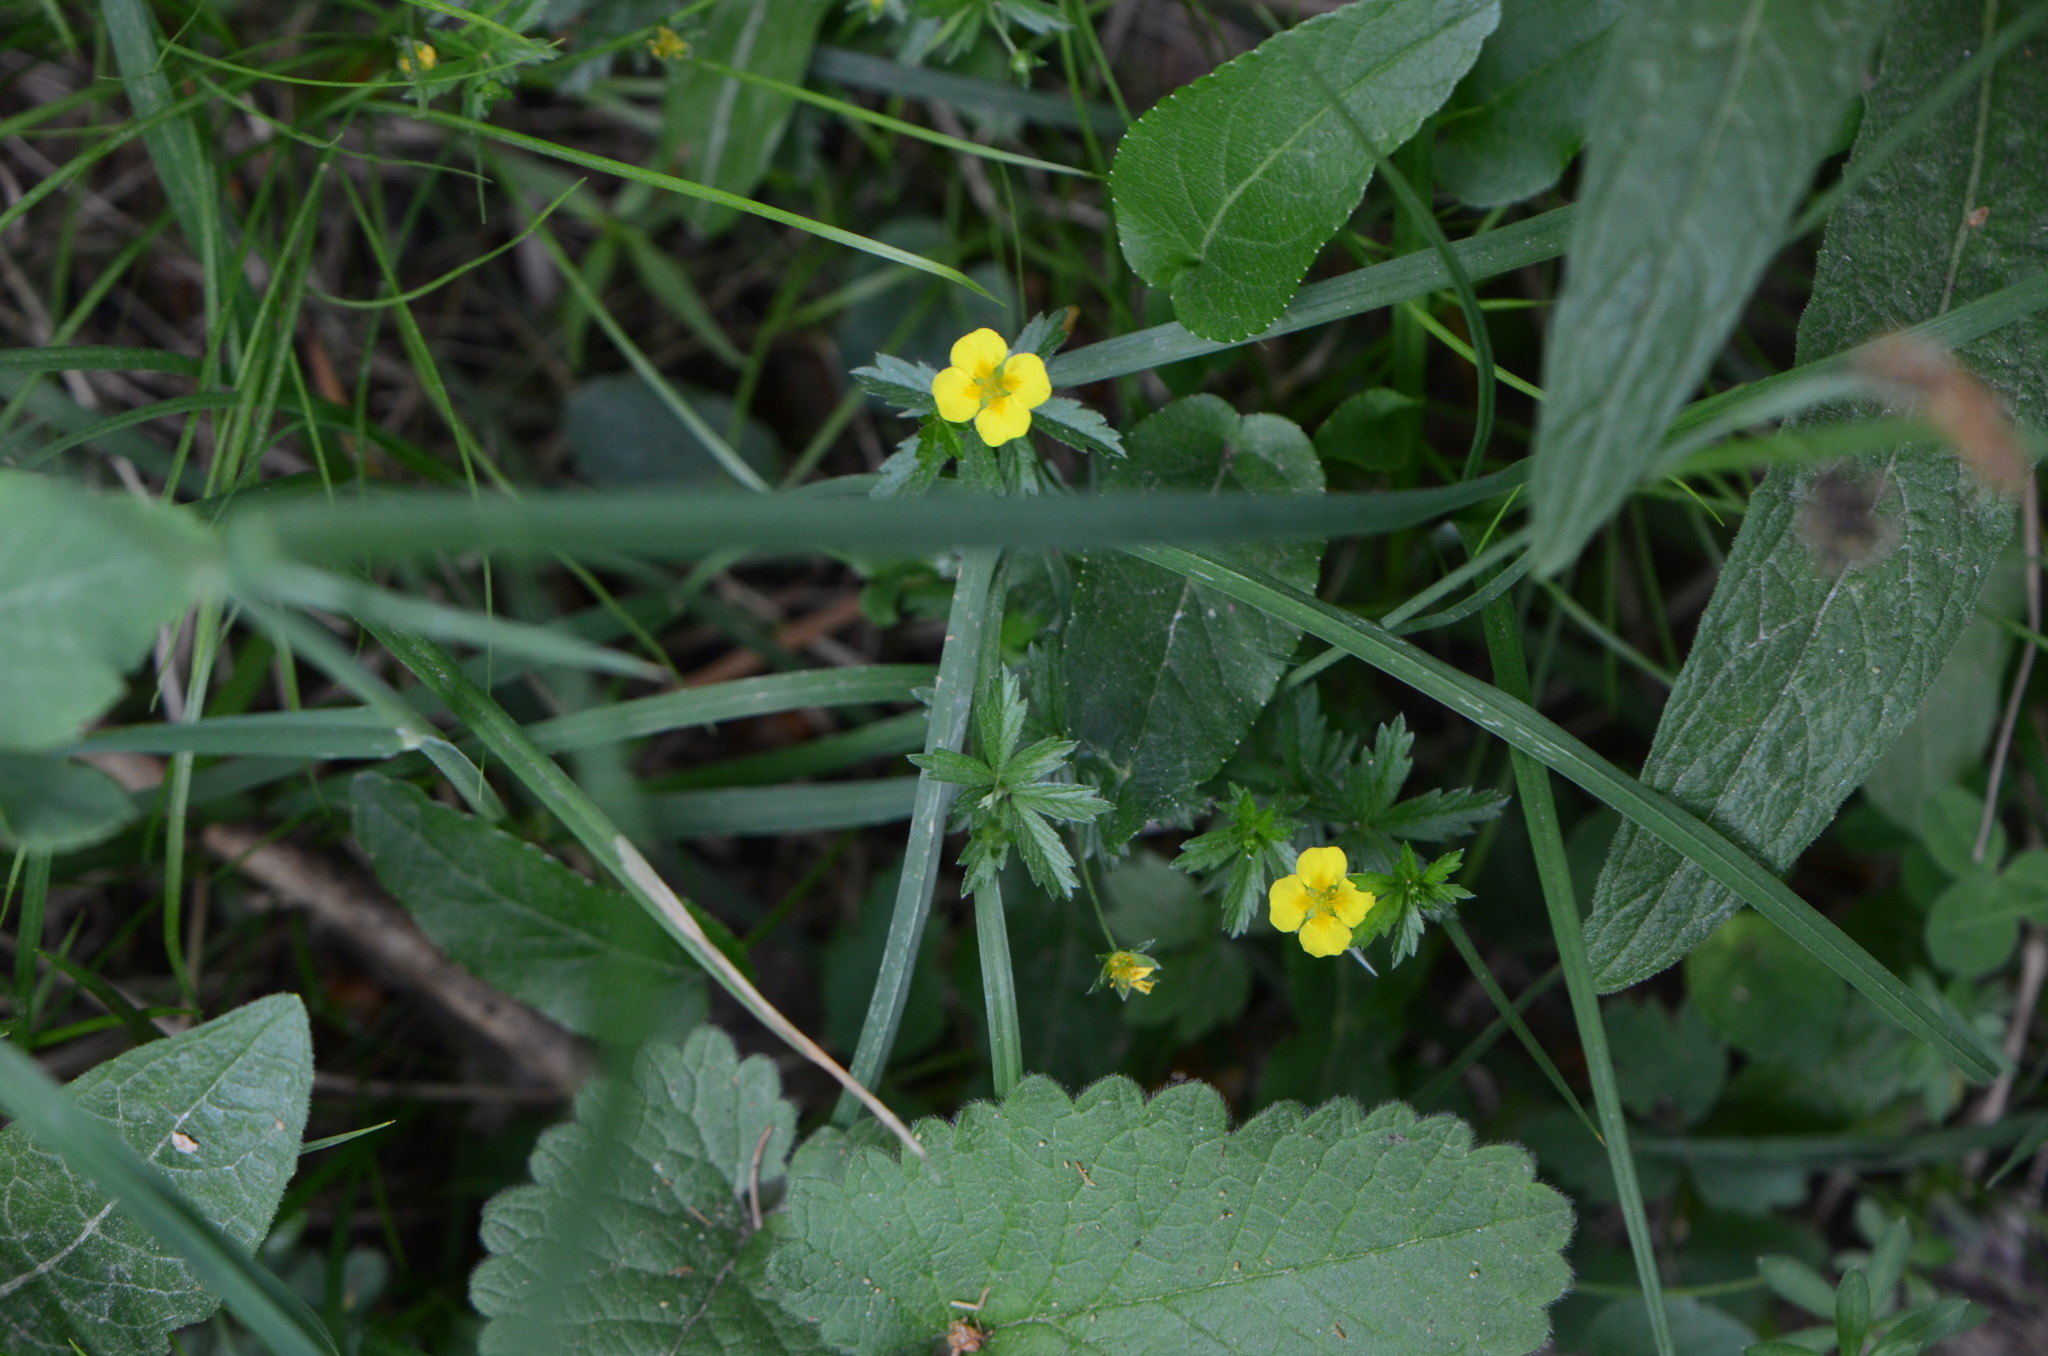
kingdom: Plantae
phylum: Tracheophyta
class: Magnoliopsida
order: Rosales
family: Rosaceae
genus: Potentilla
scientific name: Potentilla erecta
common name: Tormentil
